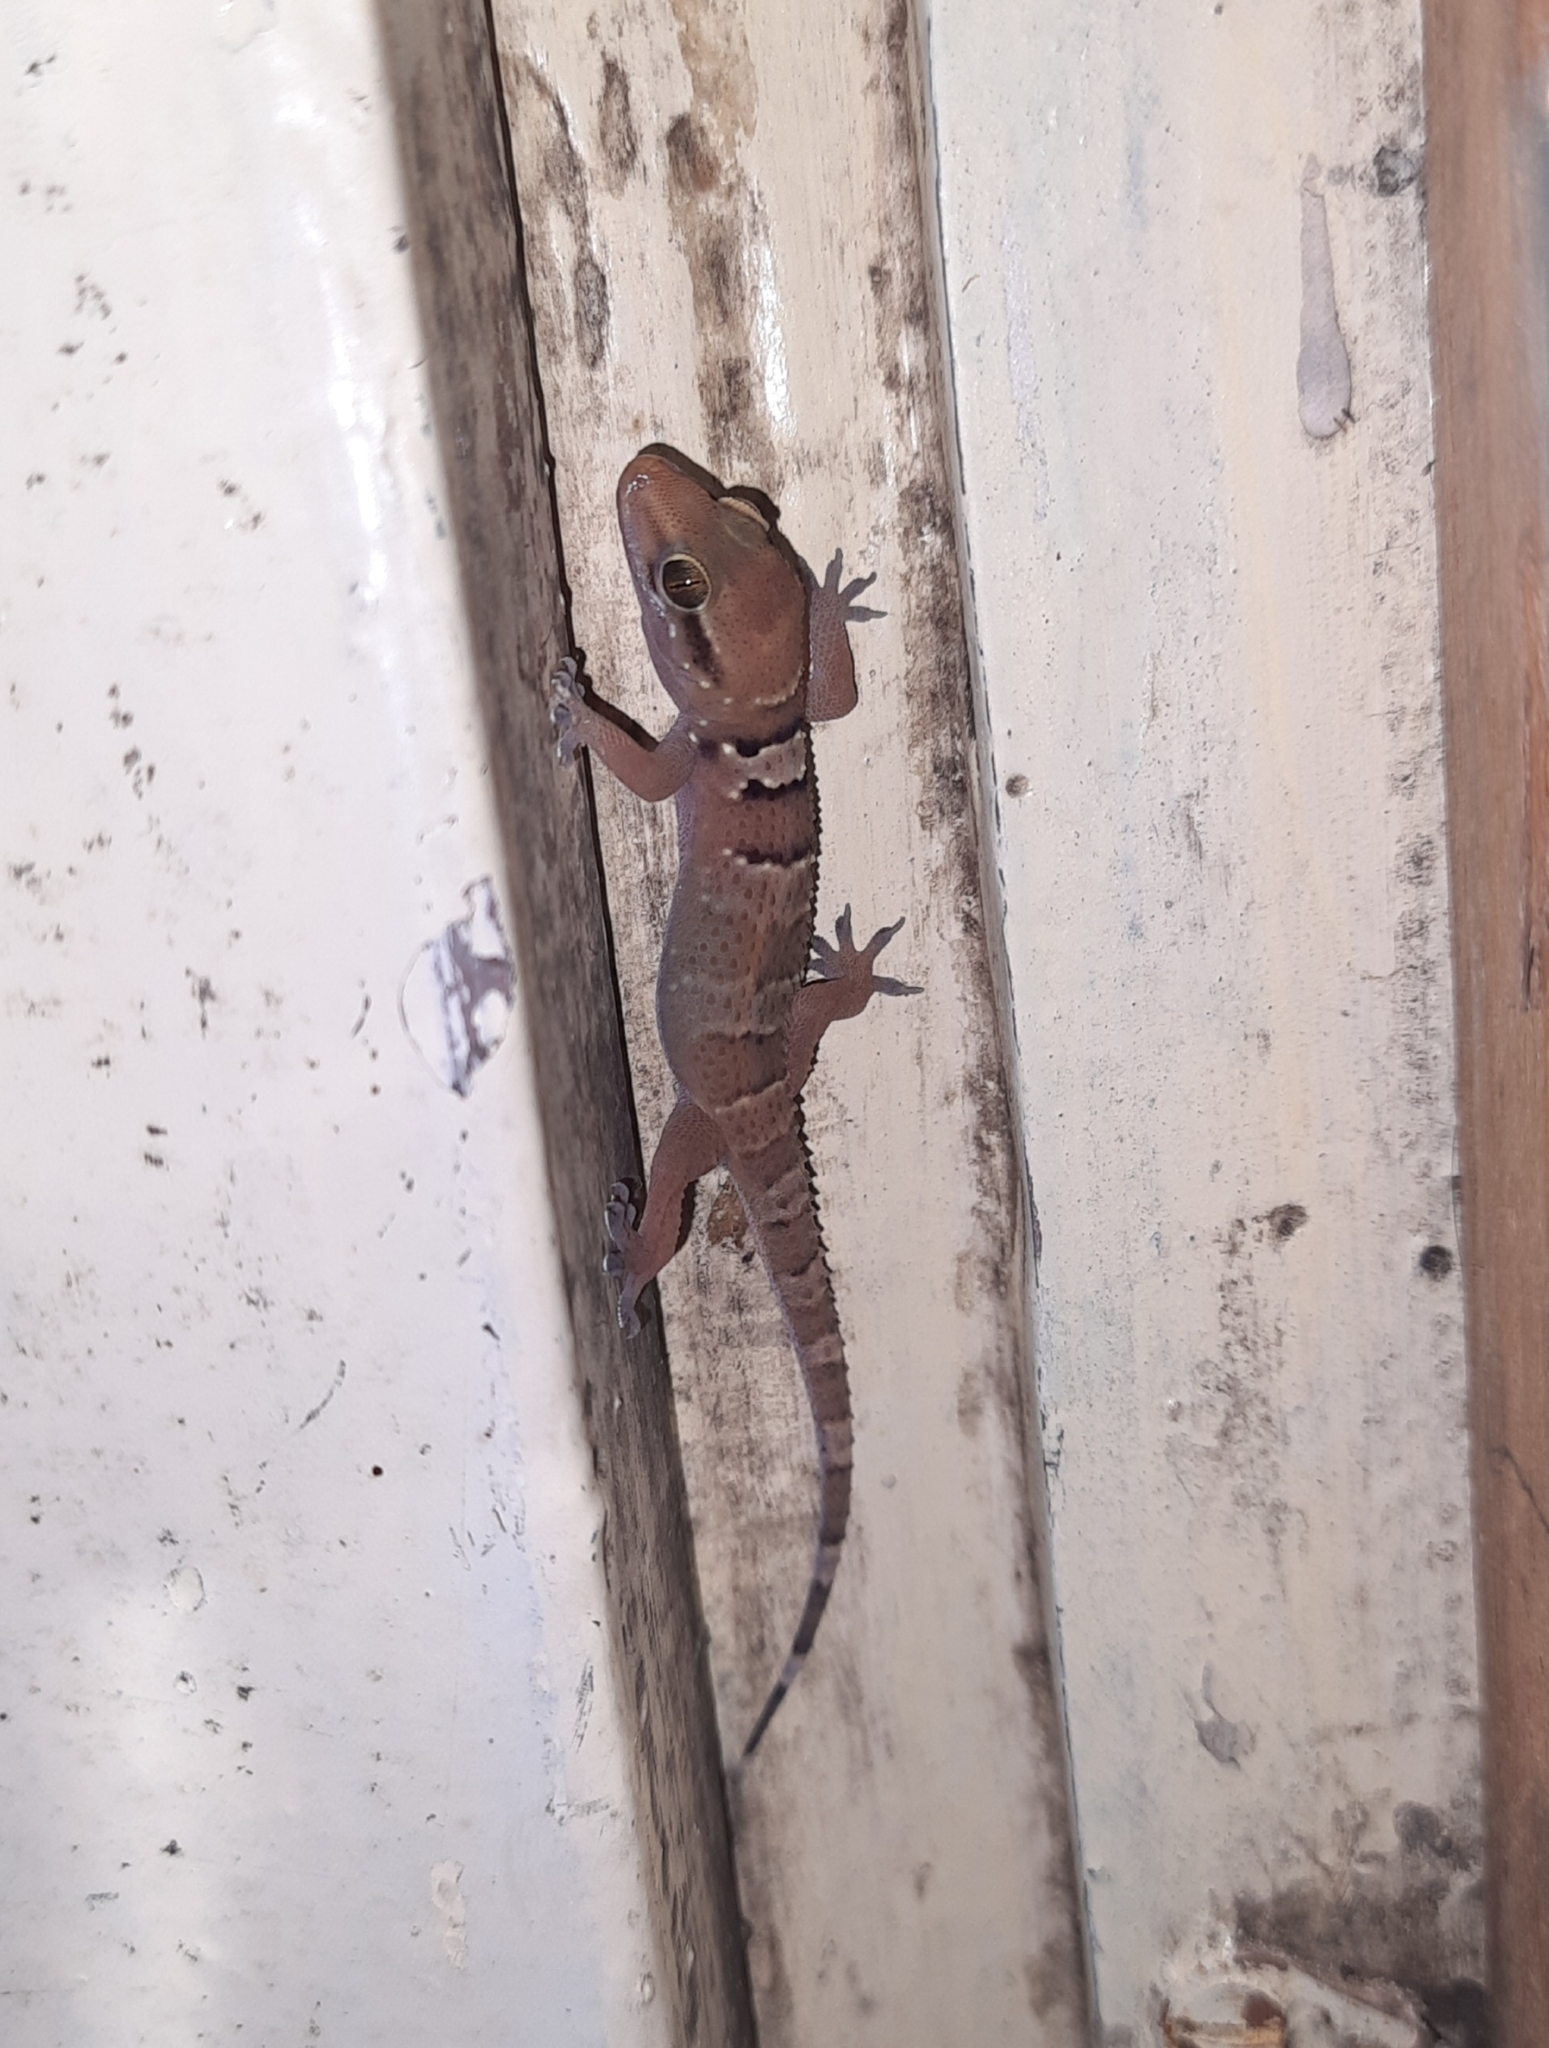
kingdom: Animalia
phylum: Chordata
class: Squamata
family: Gekkonidae
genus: Hemidactylus
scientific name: Hemidactylus triedrus
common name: Blotched house gecko
